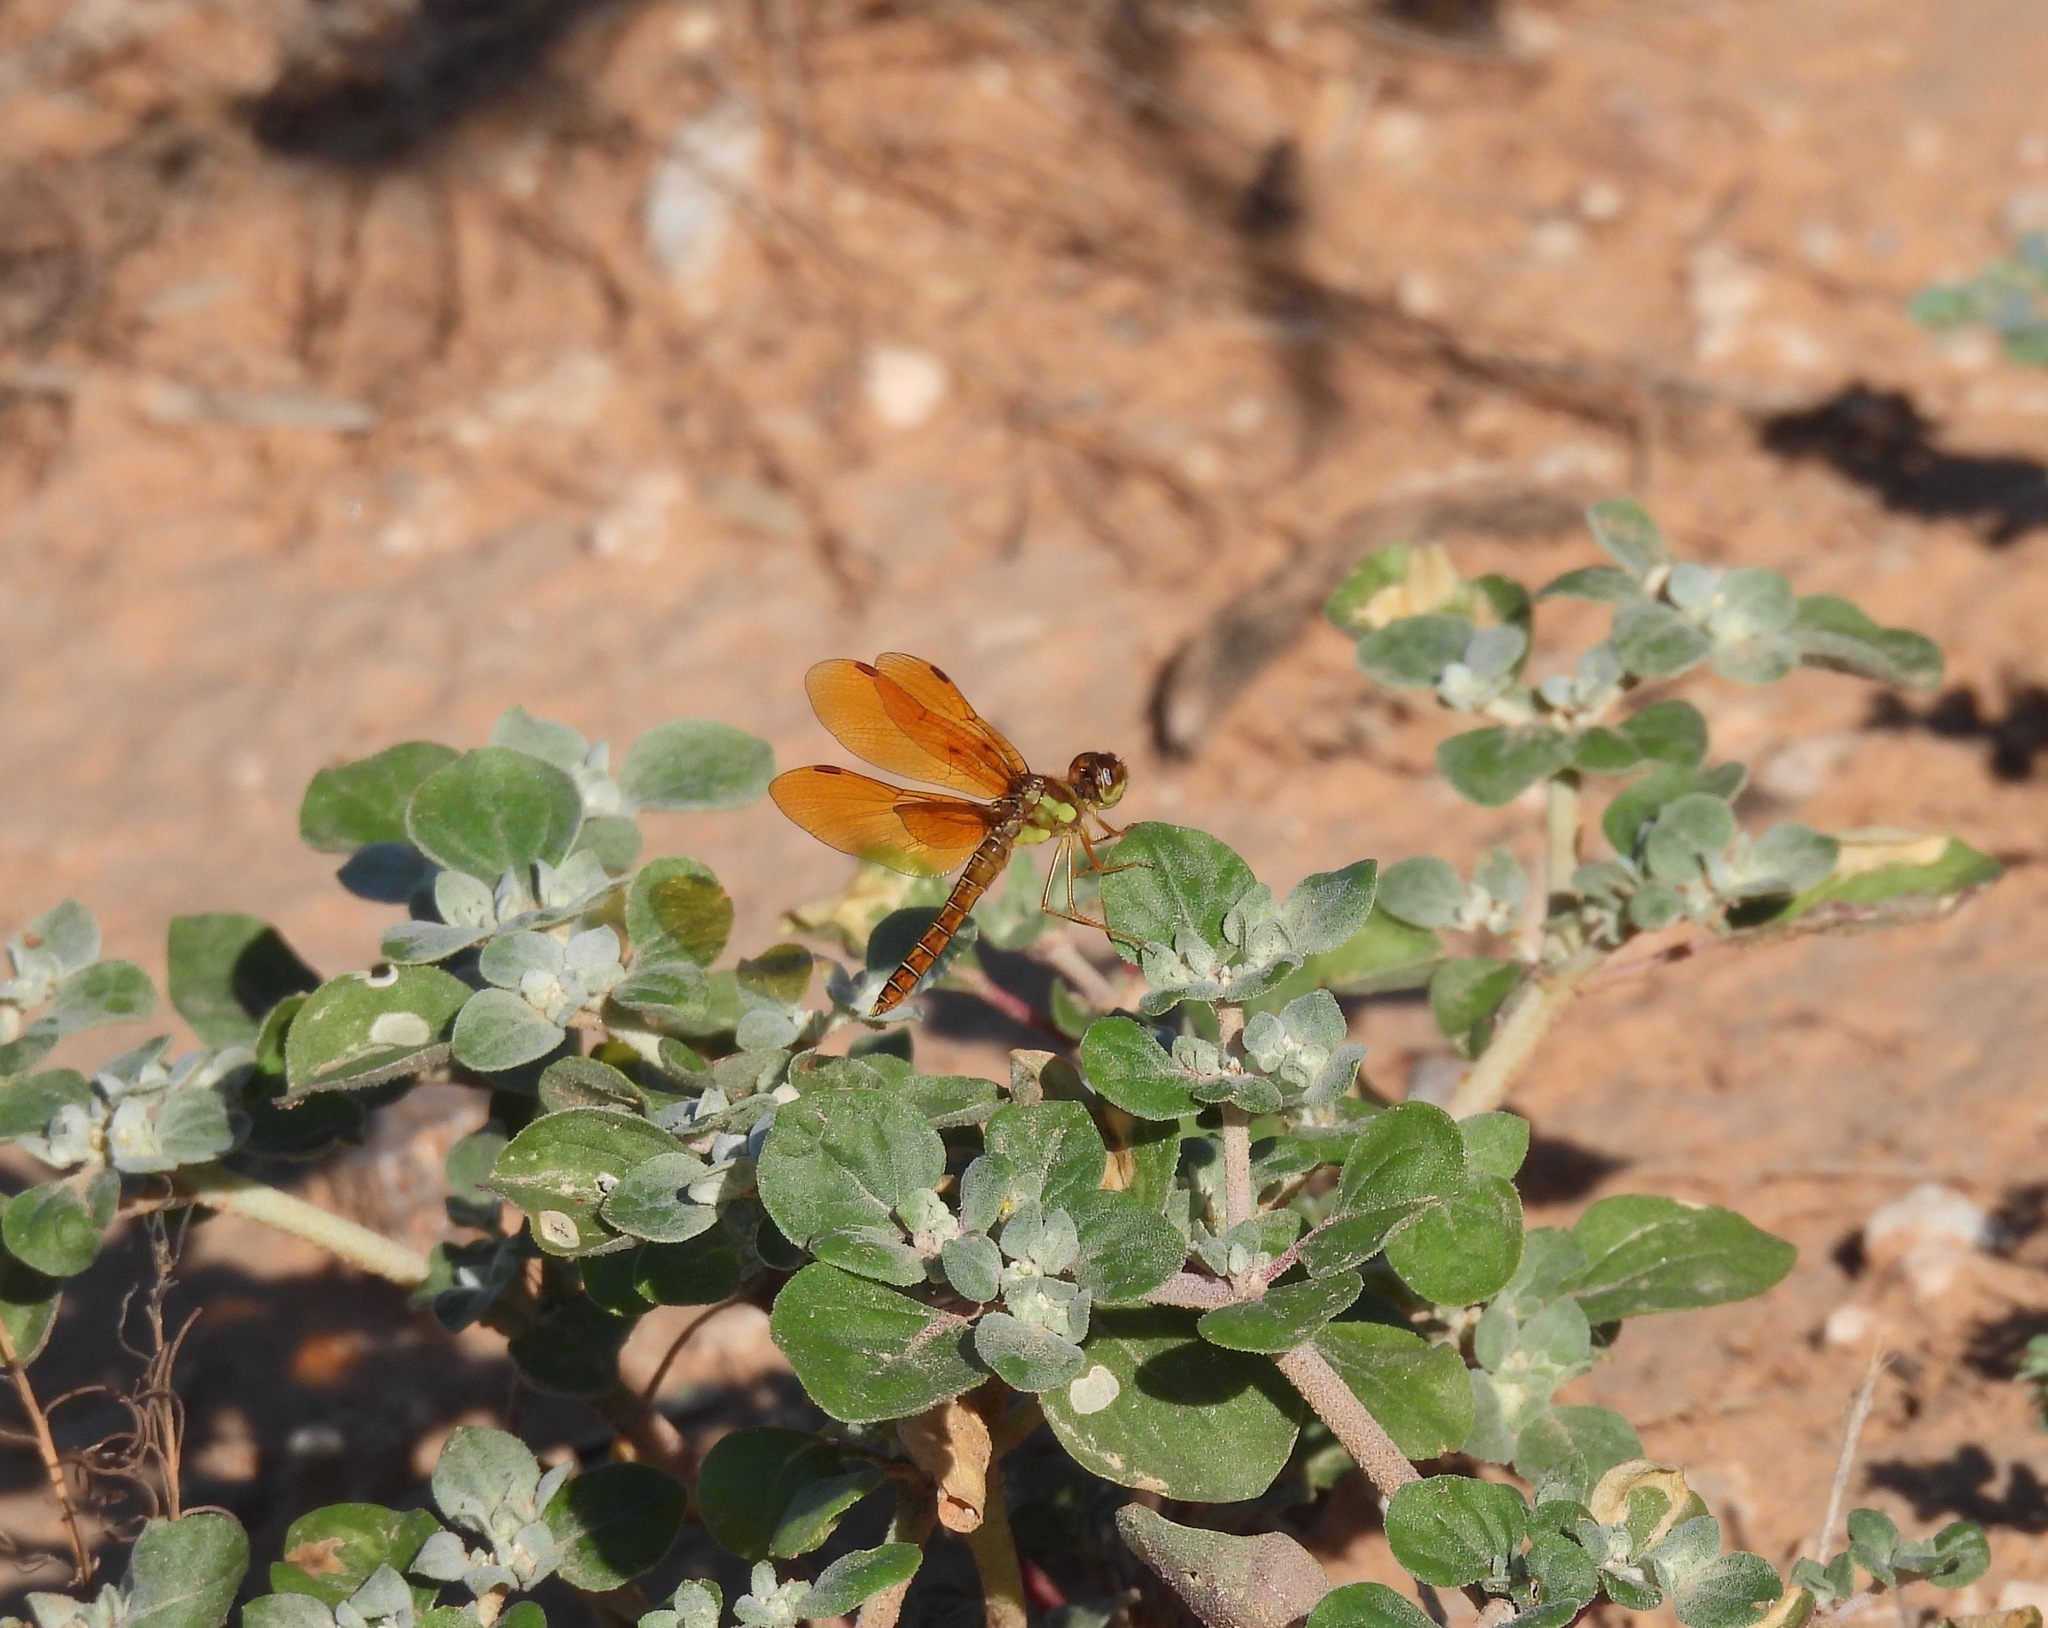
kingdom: Animalia
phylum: Arthropoda
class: Insecta
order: Odonata
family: Libellulidae
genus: Perithemis
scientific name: Perithemis tenera
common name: Eastern amberwing
